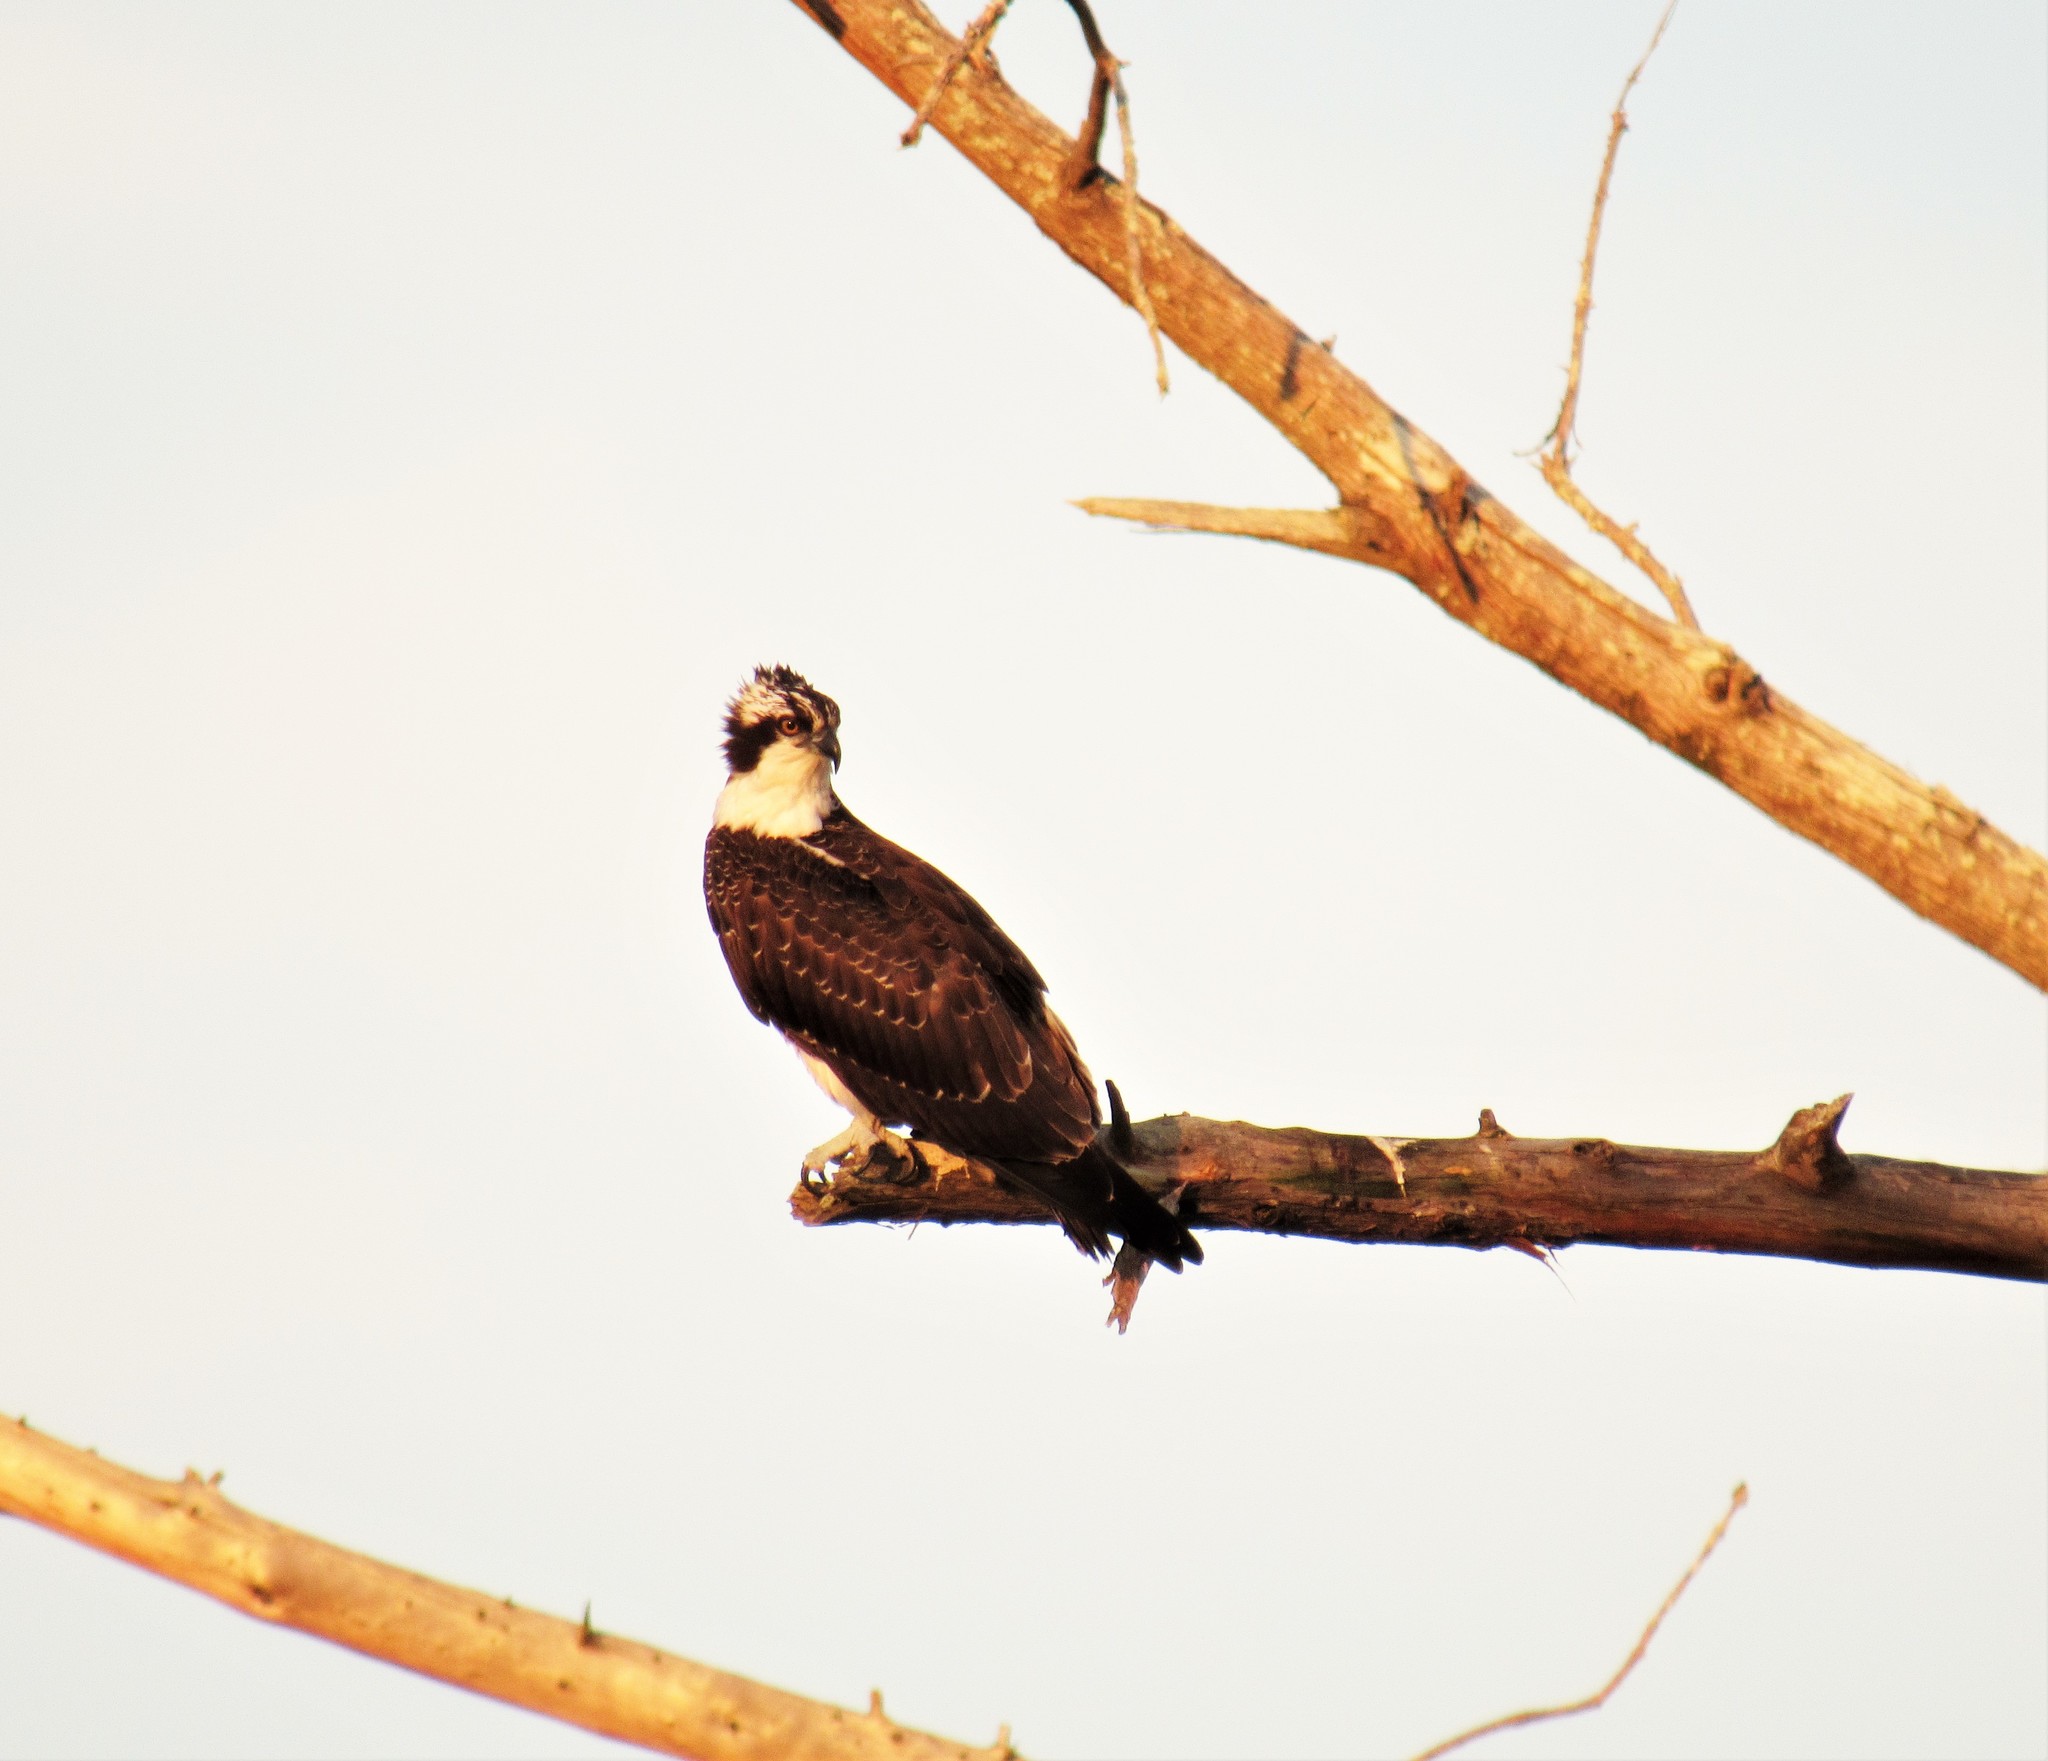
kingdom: Animalia
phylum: Chordata
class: Aves
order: Accipitriformes
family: Pandionidae
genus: Pandion
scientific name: Pandion haliaetus
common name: Osprey
